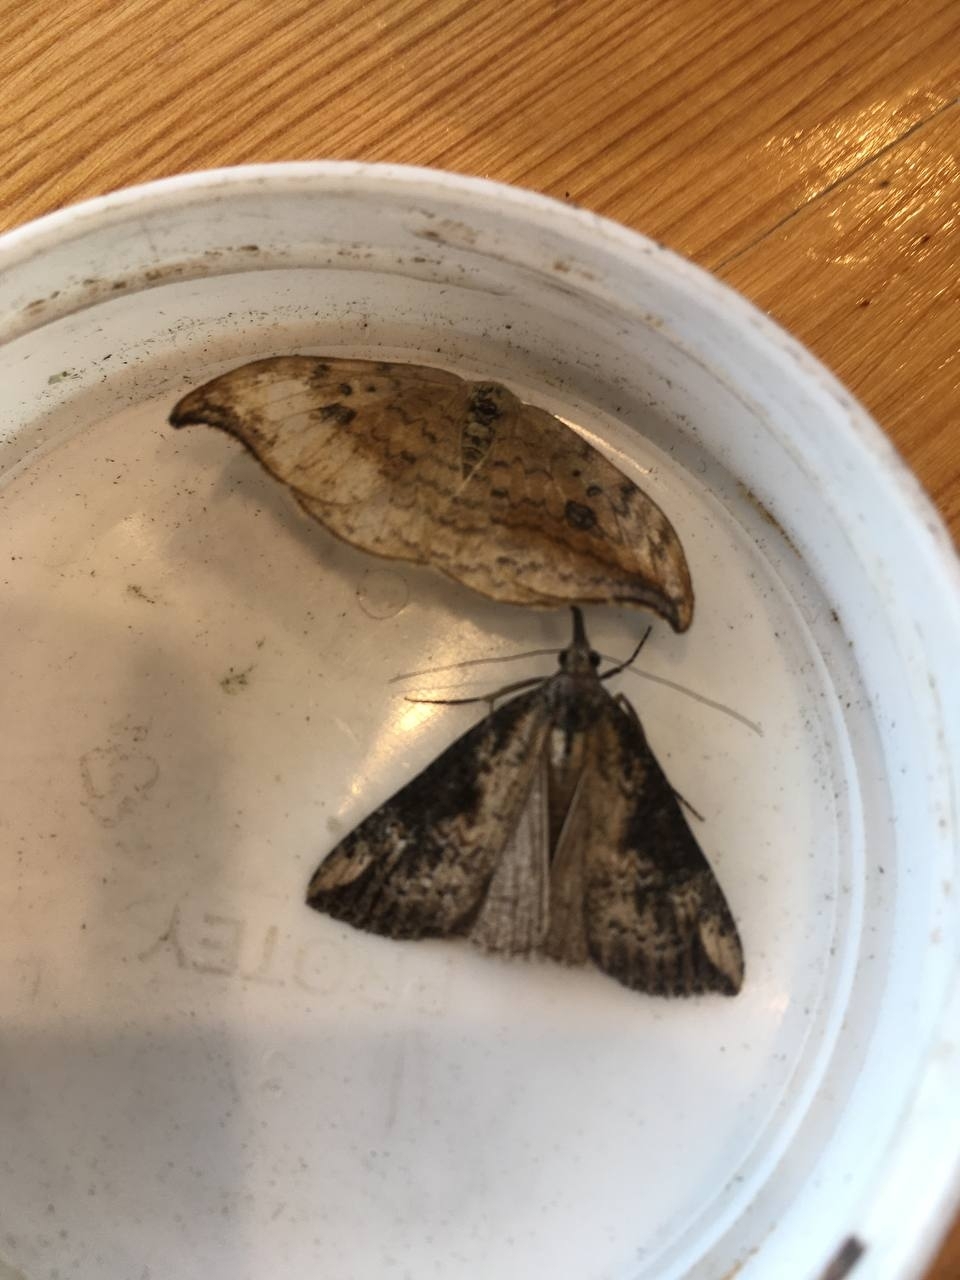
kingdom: Animalia
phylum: Arthropoda
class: Insecta
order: Lepidoptera
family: Erebidae
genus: Hypena
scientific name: Hypena obesalis
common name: Paignton snout
